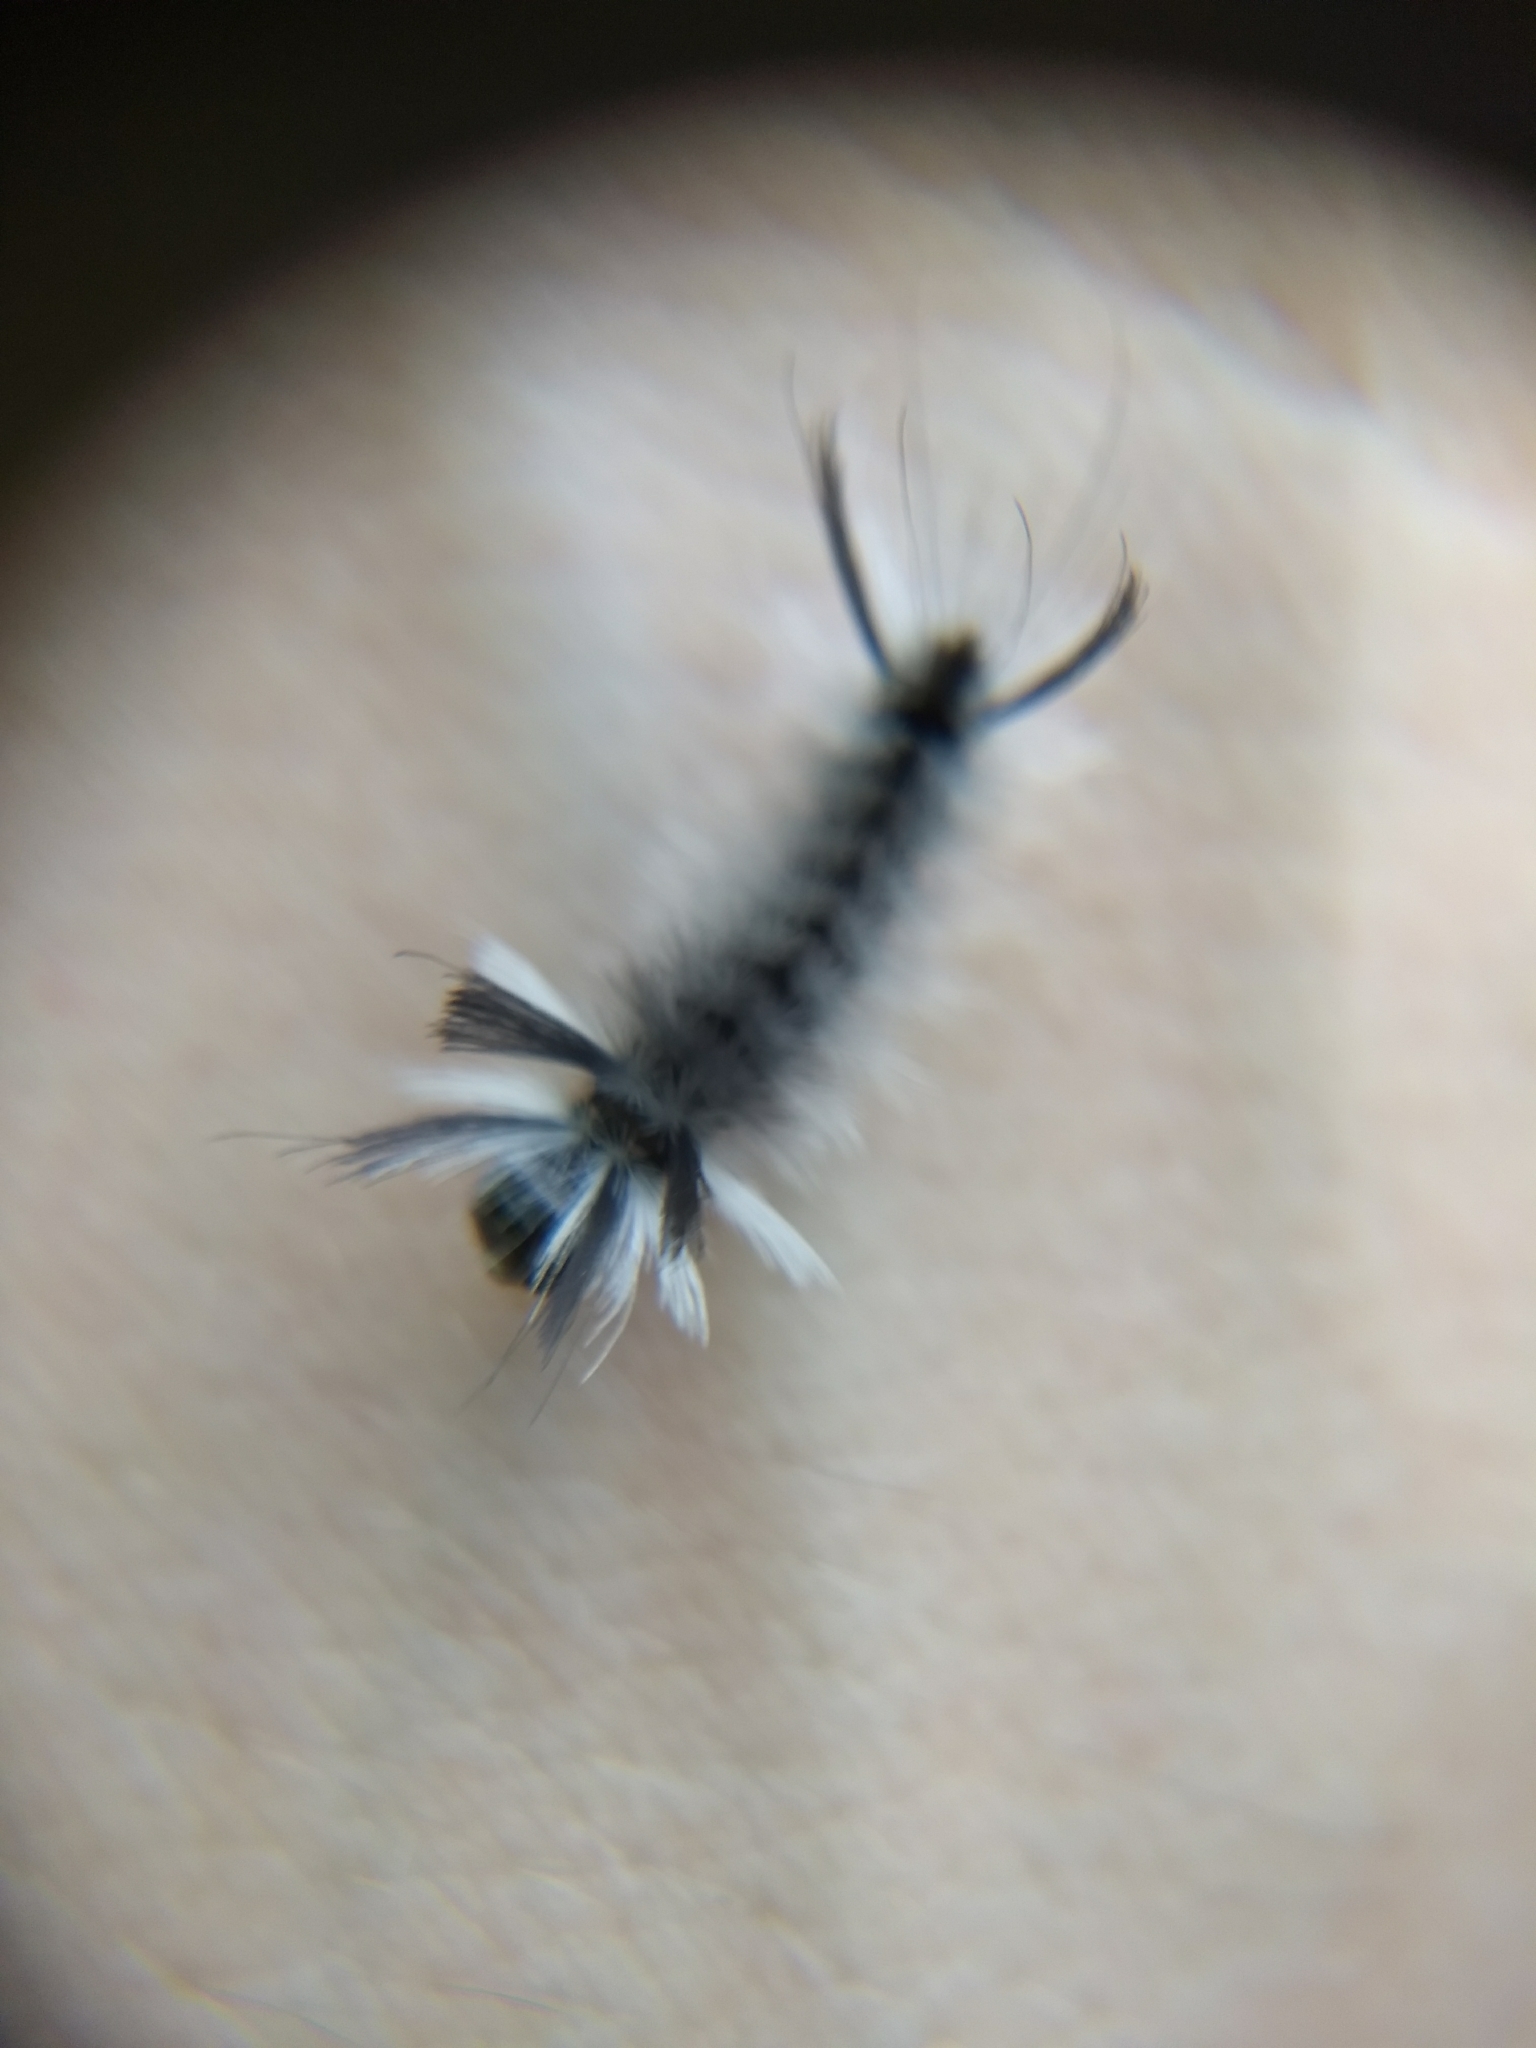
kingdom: Animalia
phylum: Arthropoda
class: Insecta
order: Lepidoptera
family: Erebidae
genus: Halysidota
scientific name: Halysidota tessellaris
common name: Banded tussock moth
